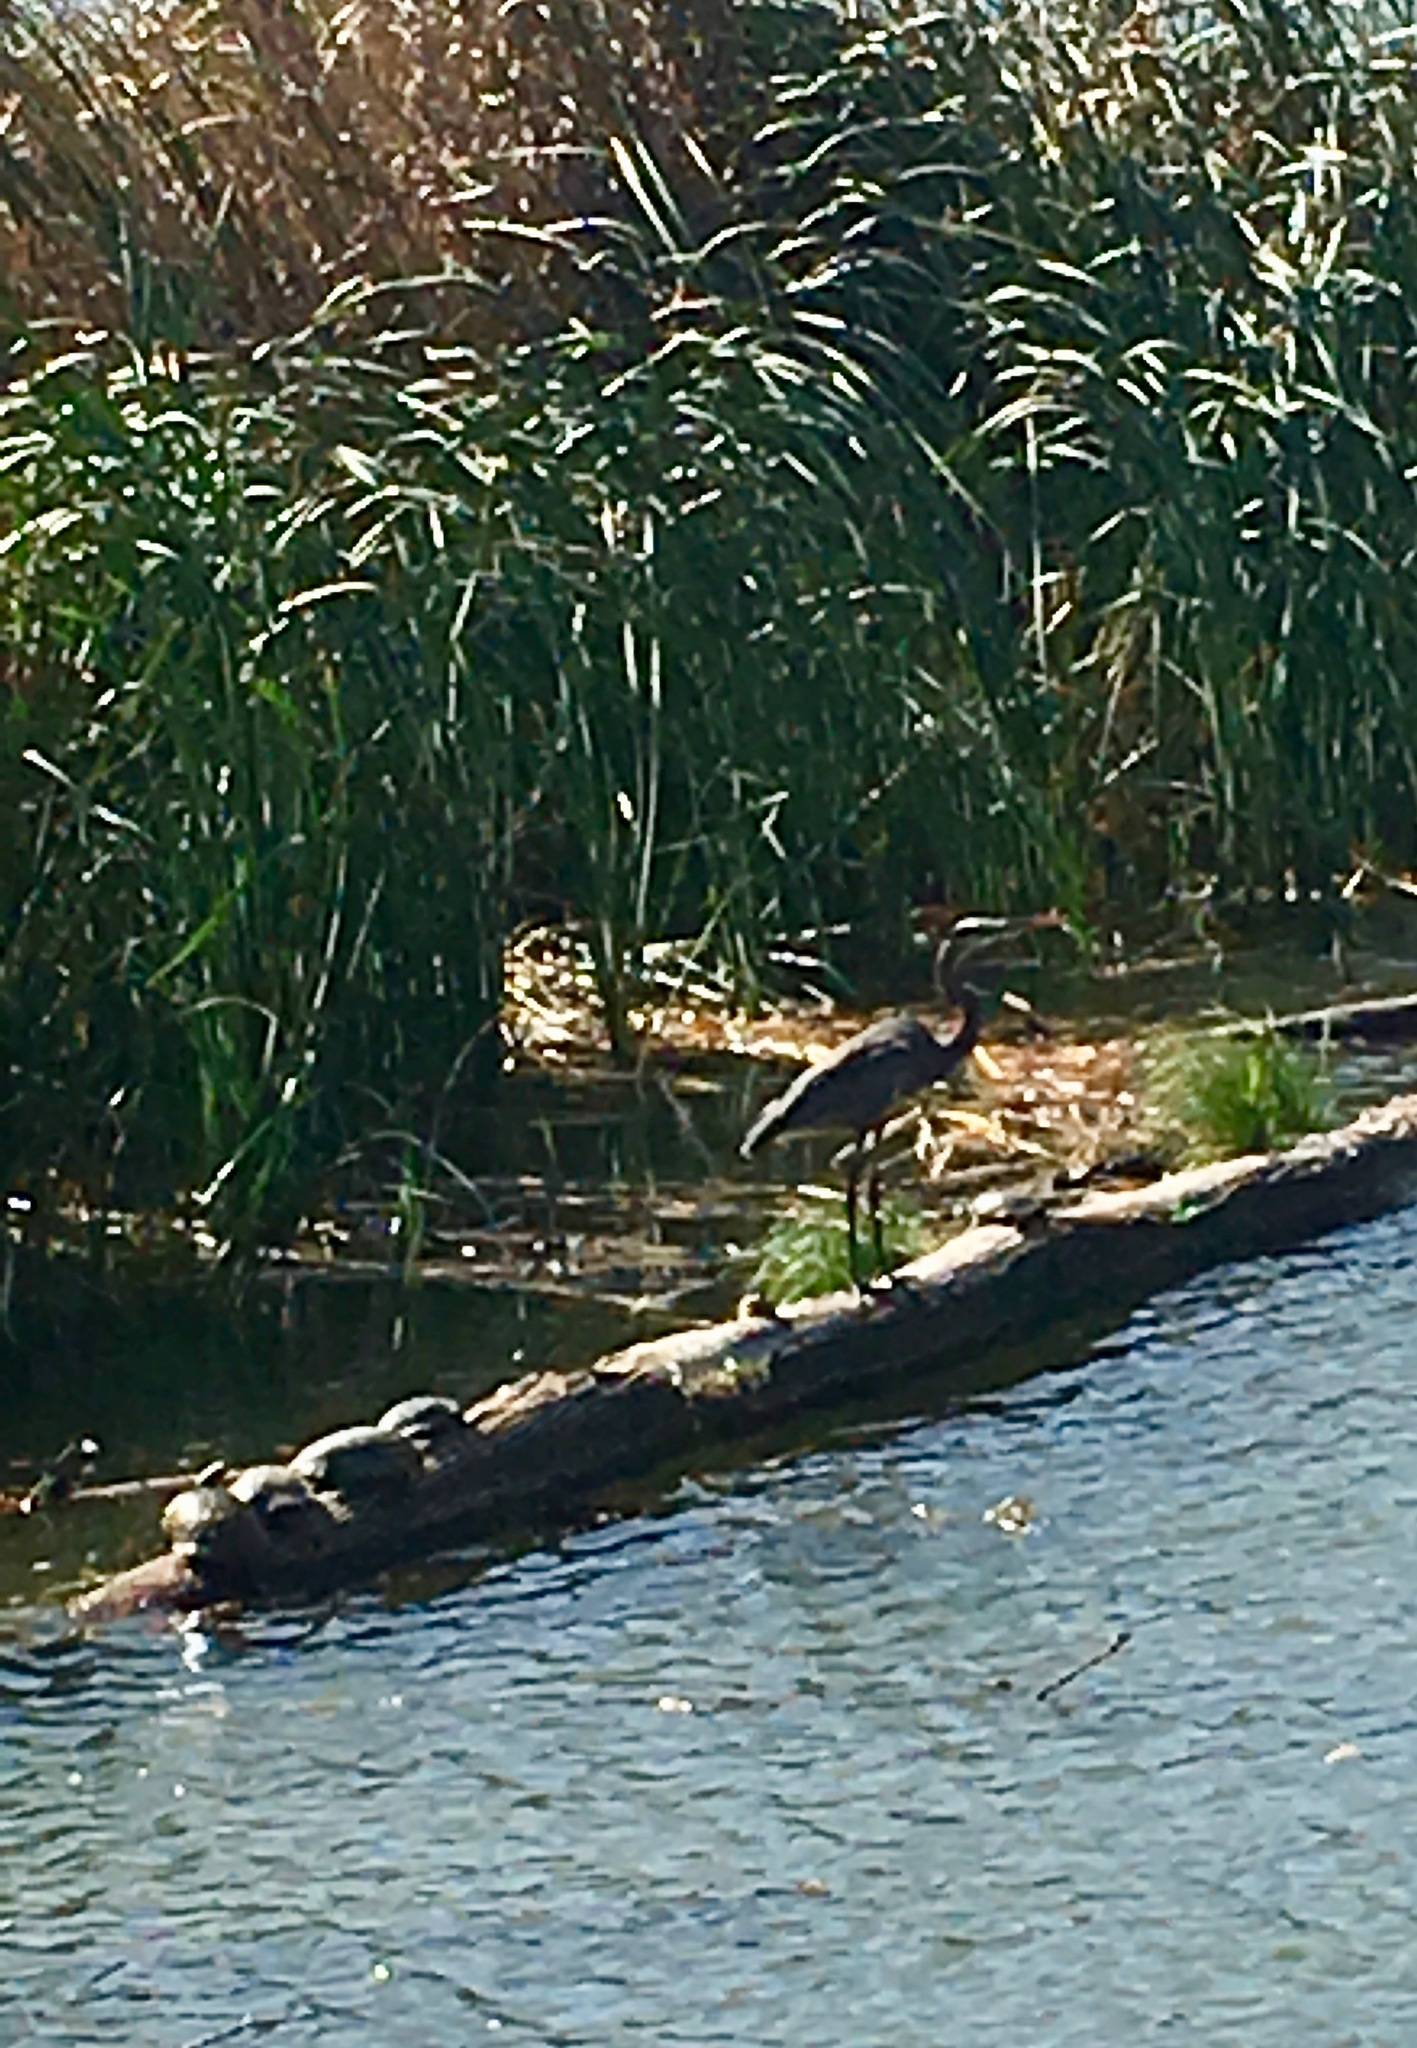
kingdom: Animalia
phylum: Chordata
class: Testudines
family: Emydidae
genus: Trachemys
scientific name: Trachemys scripta
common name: Slider
